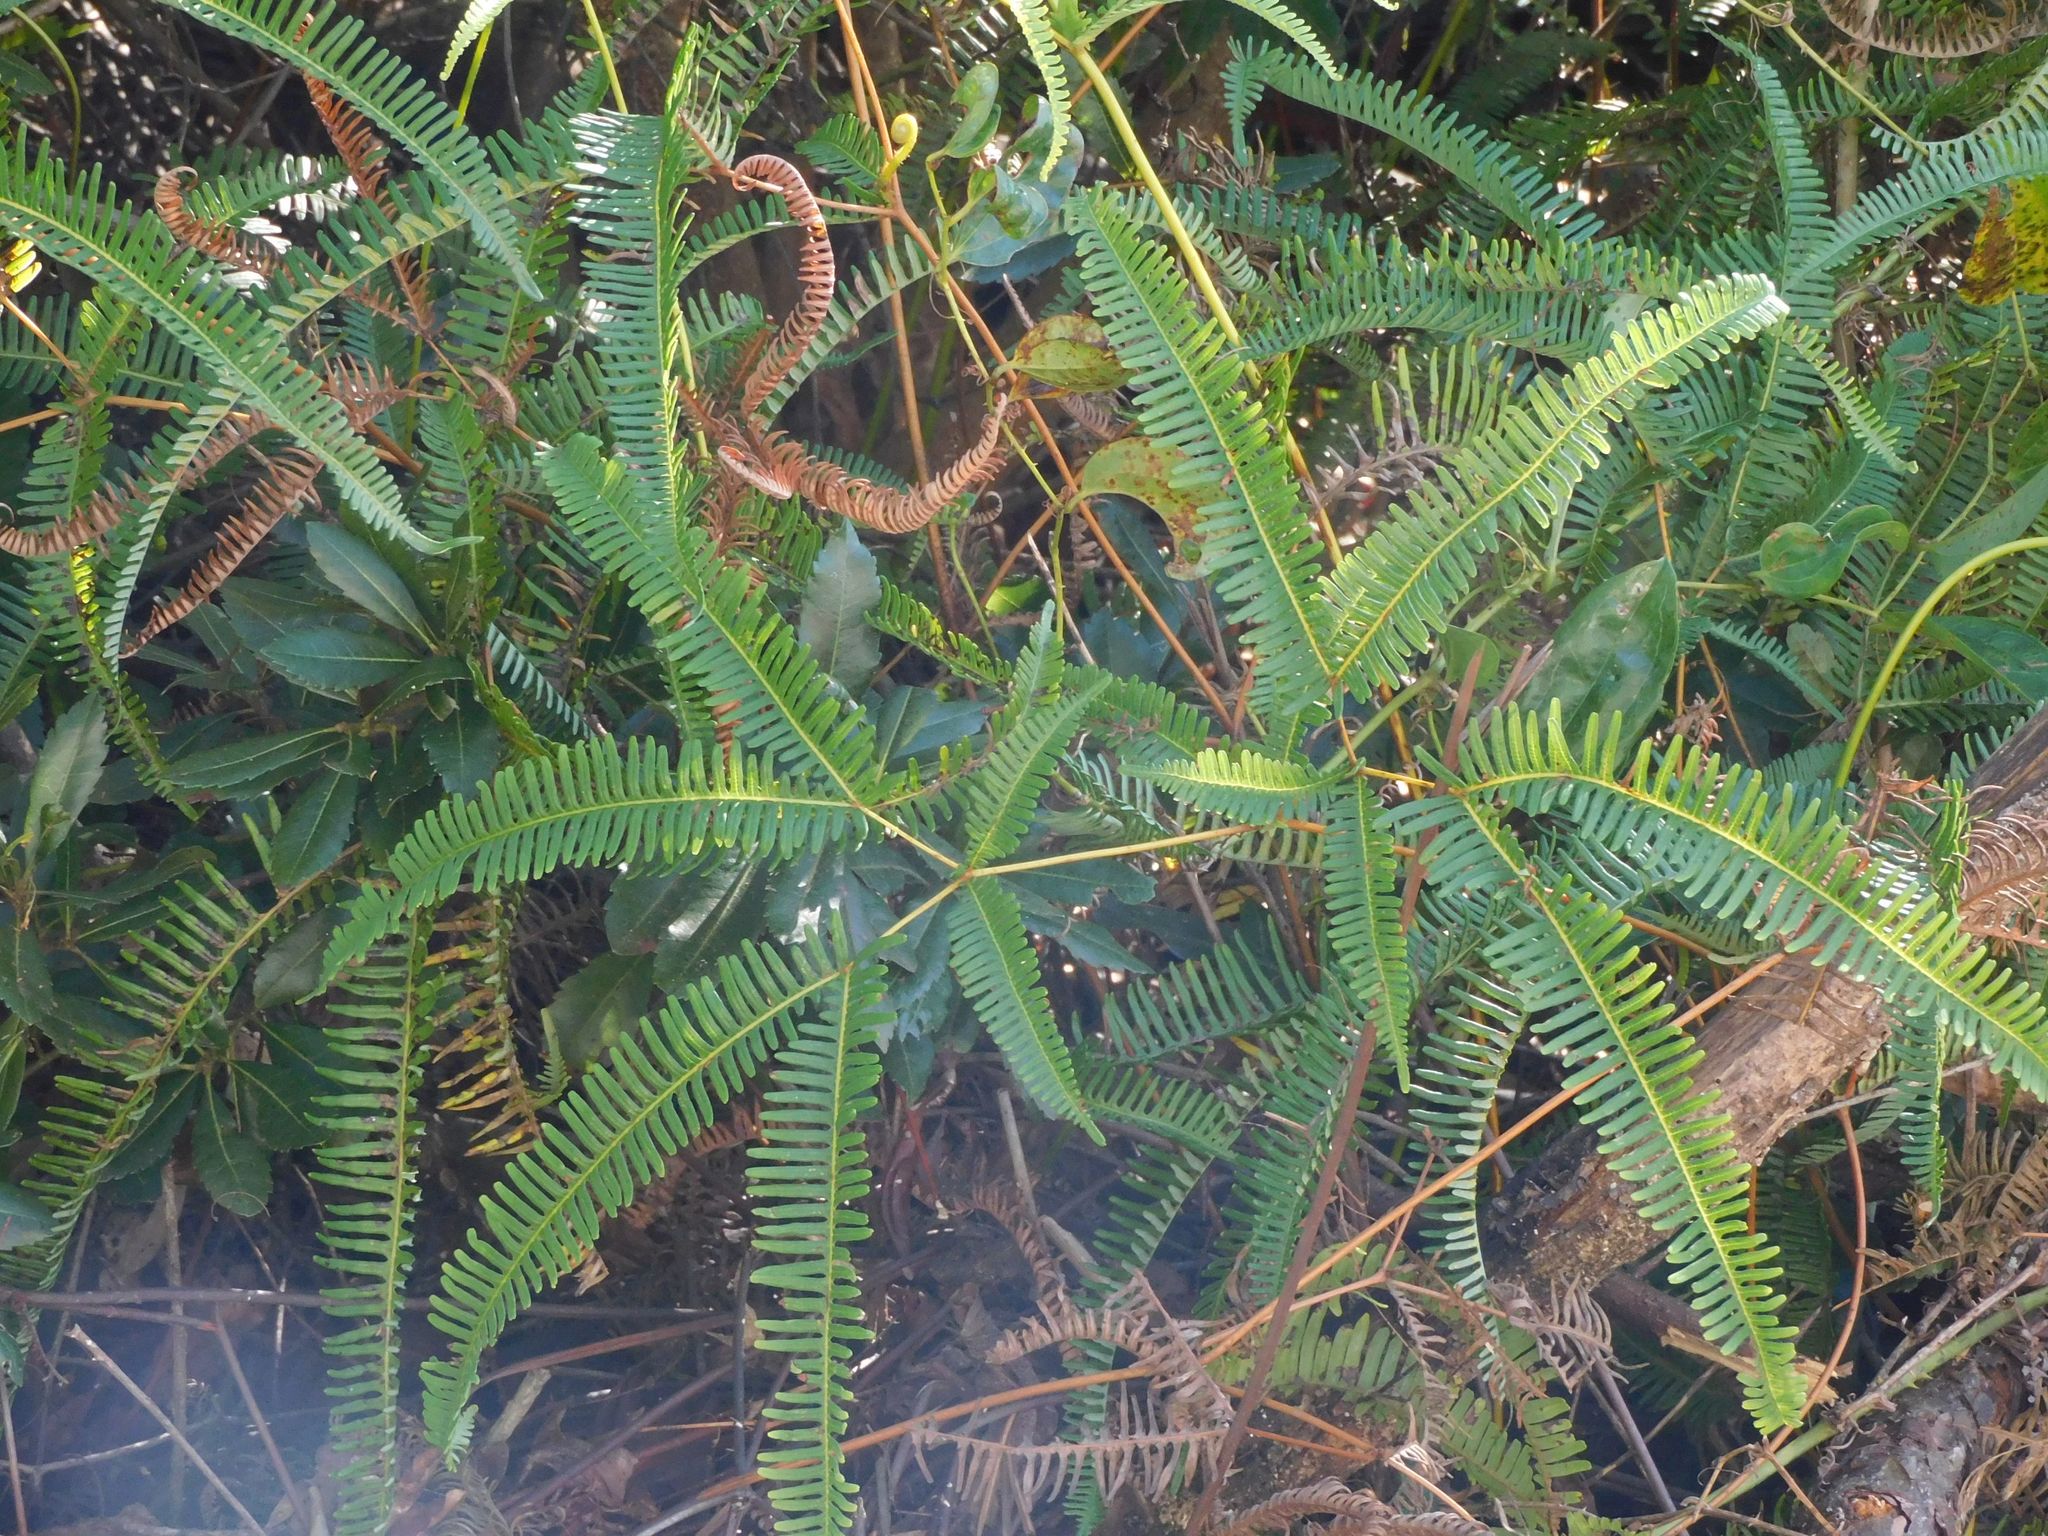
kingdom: Plantae
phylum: Tracheophyta
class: Polypodiopsida
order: Gleicheniales
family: Gleicheniaceae
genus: Dicranopteris
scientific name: Dicranopteris linearis
